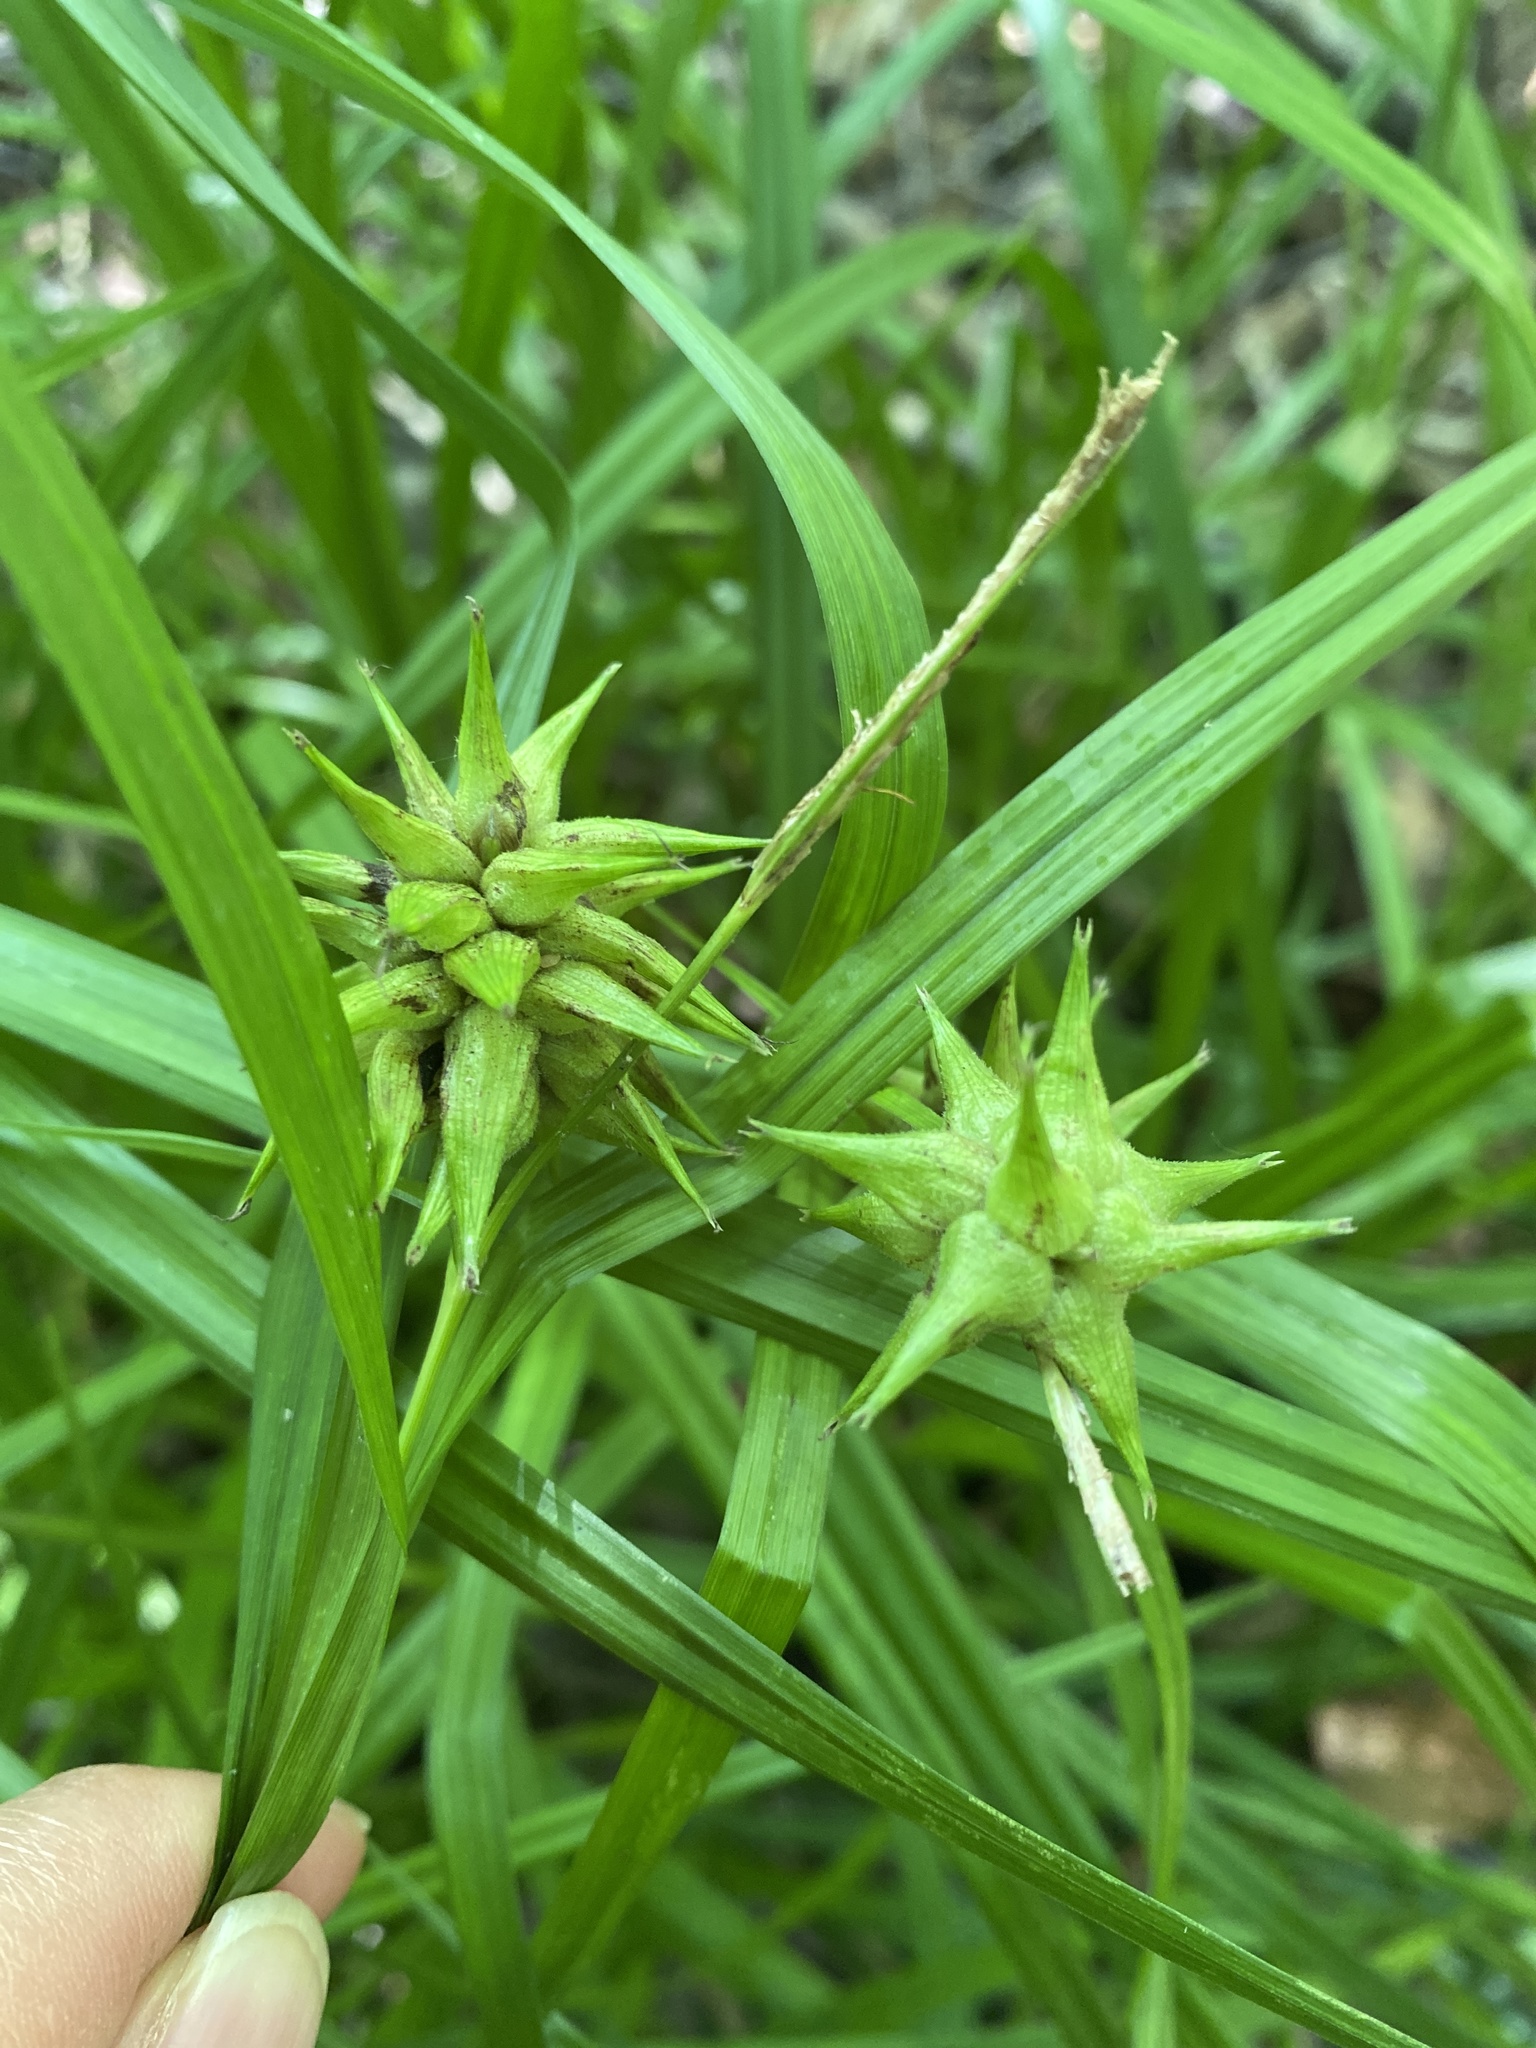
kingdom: Plantae
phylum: Tracheophyta
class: Liliopsida
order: Poales
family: Cyperaceae
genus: Carex
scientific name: Carex grayi
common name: Asa gray's sedge
